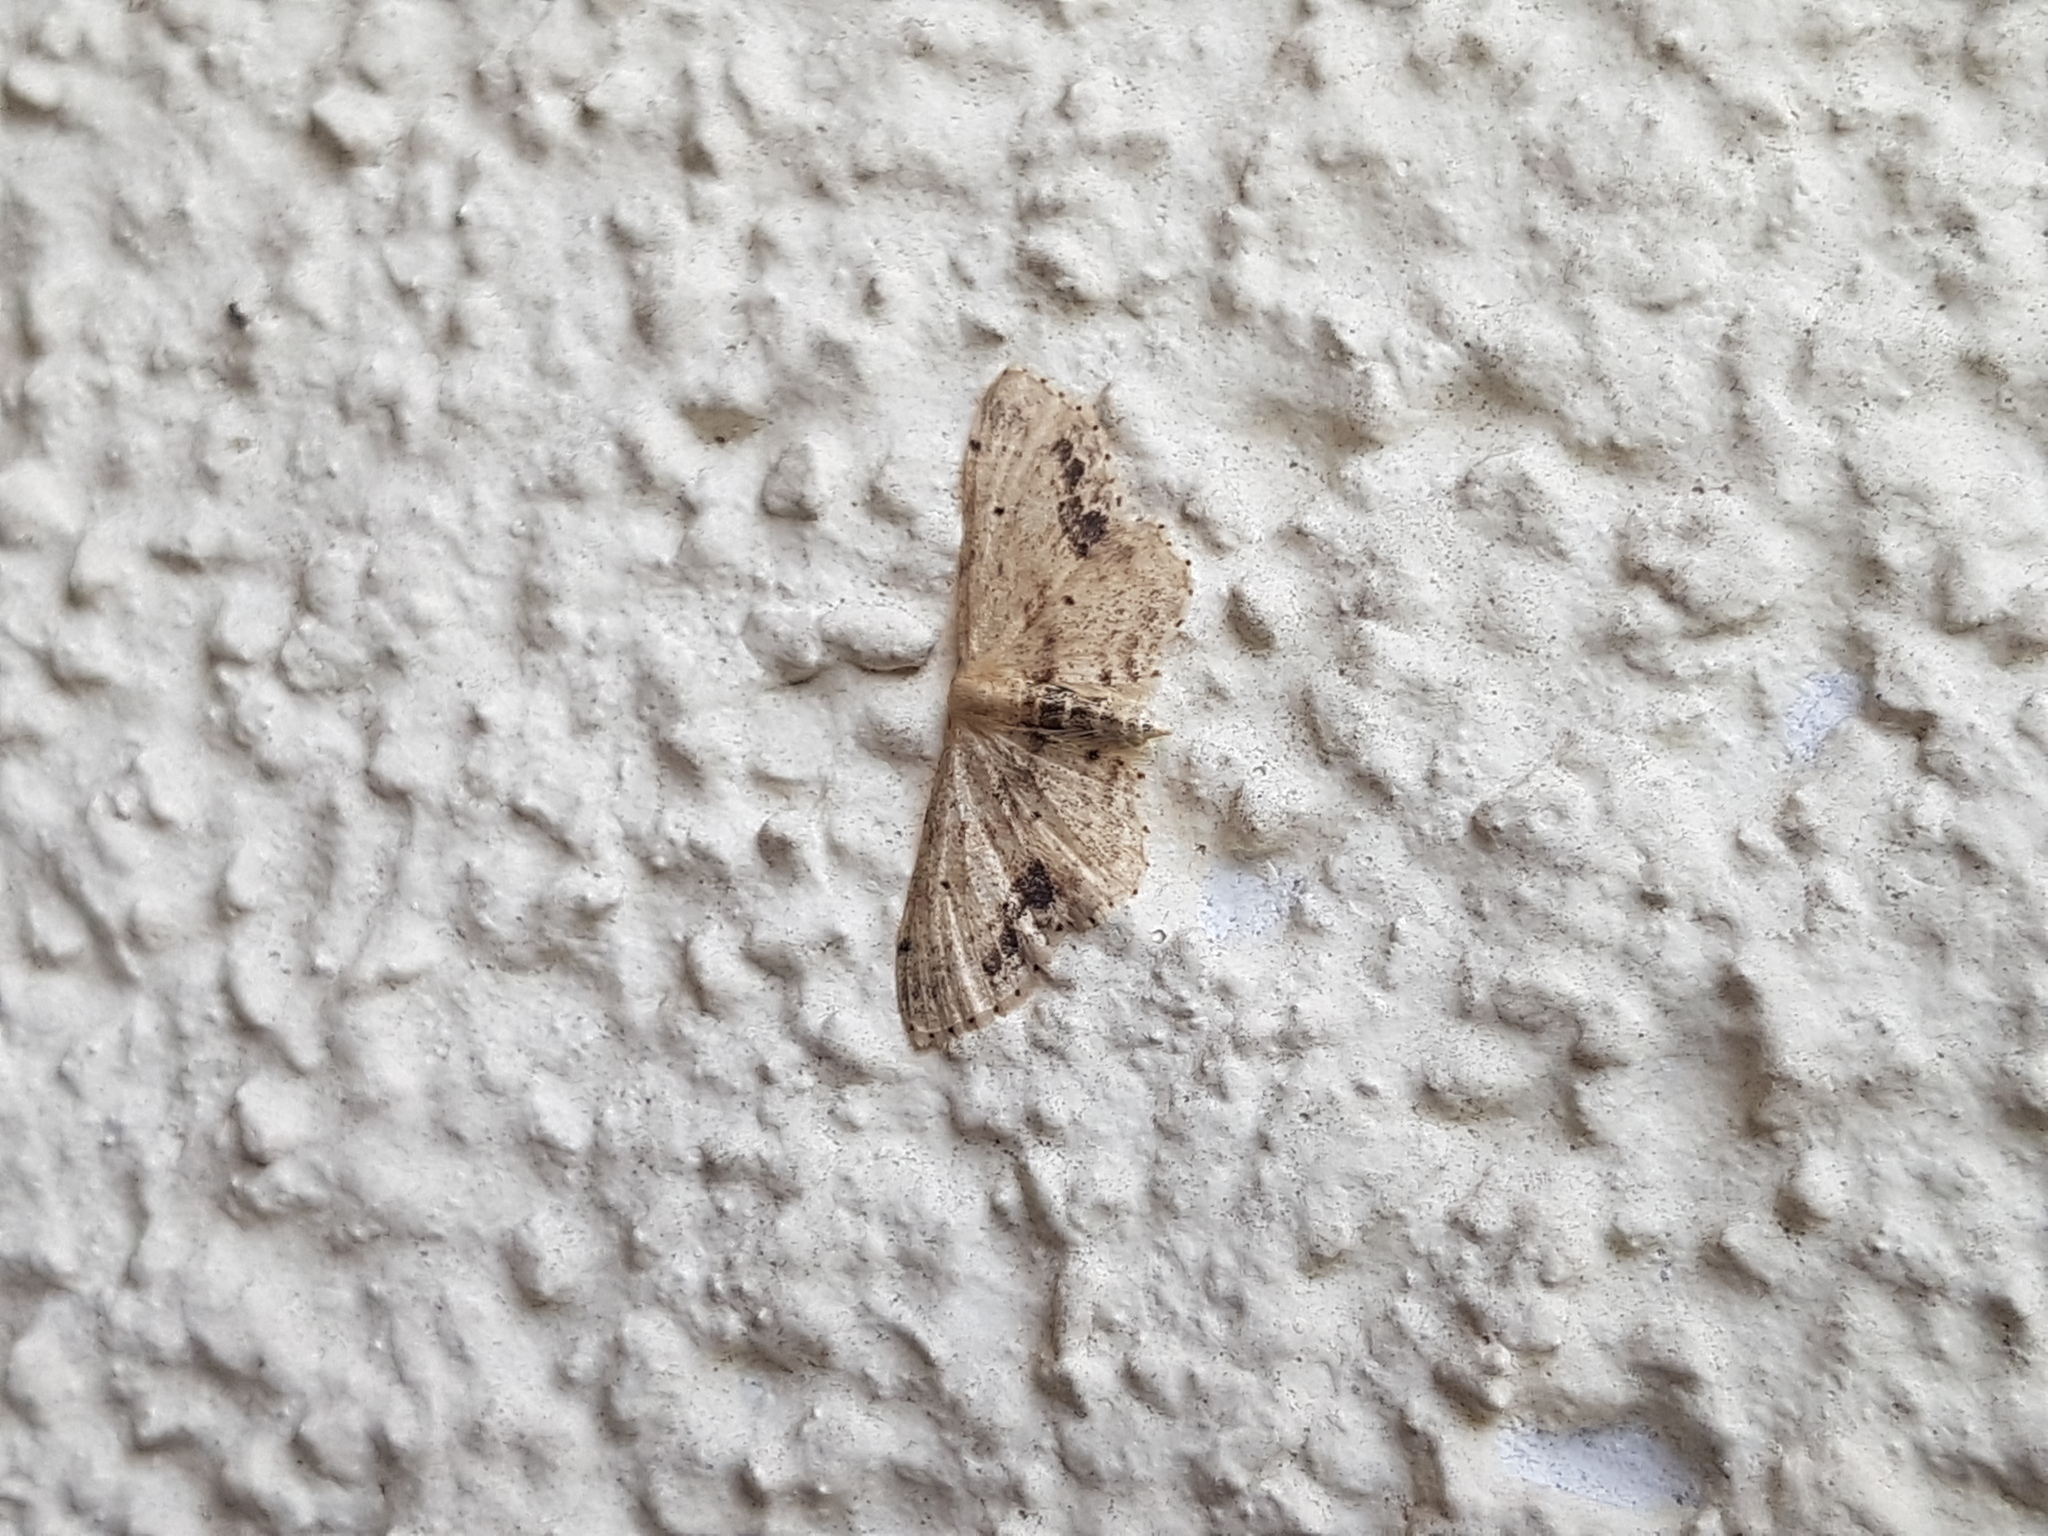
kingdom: Animalia
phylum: Arthropoda
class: Insecta
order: Lepidoptera
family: Geometridae
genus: Idaea
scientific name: Idaea dimidiata
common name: Single-dotted wave
